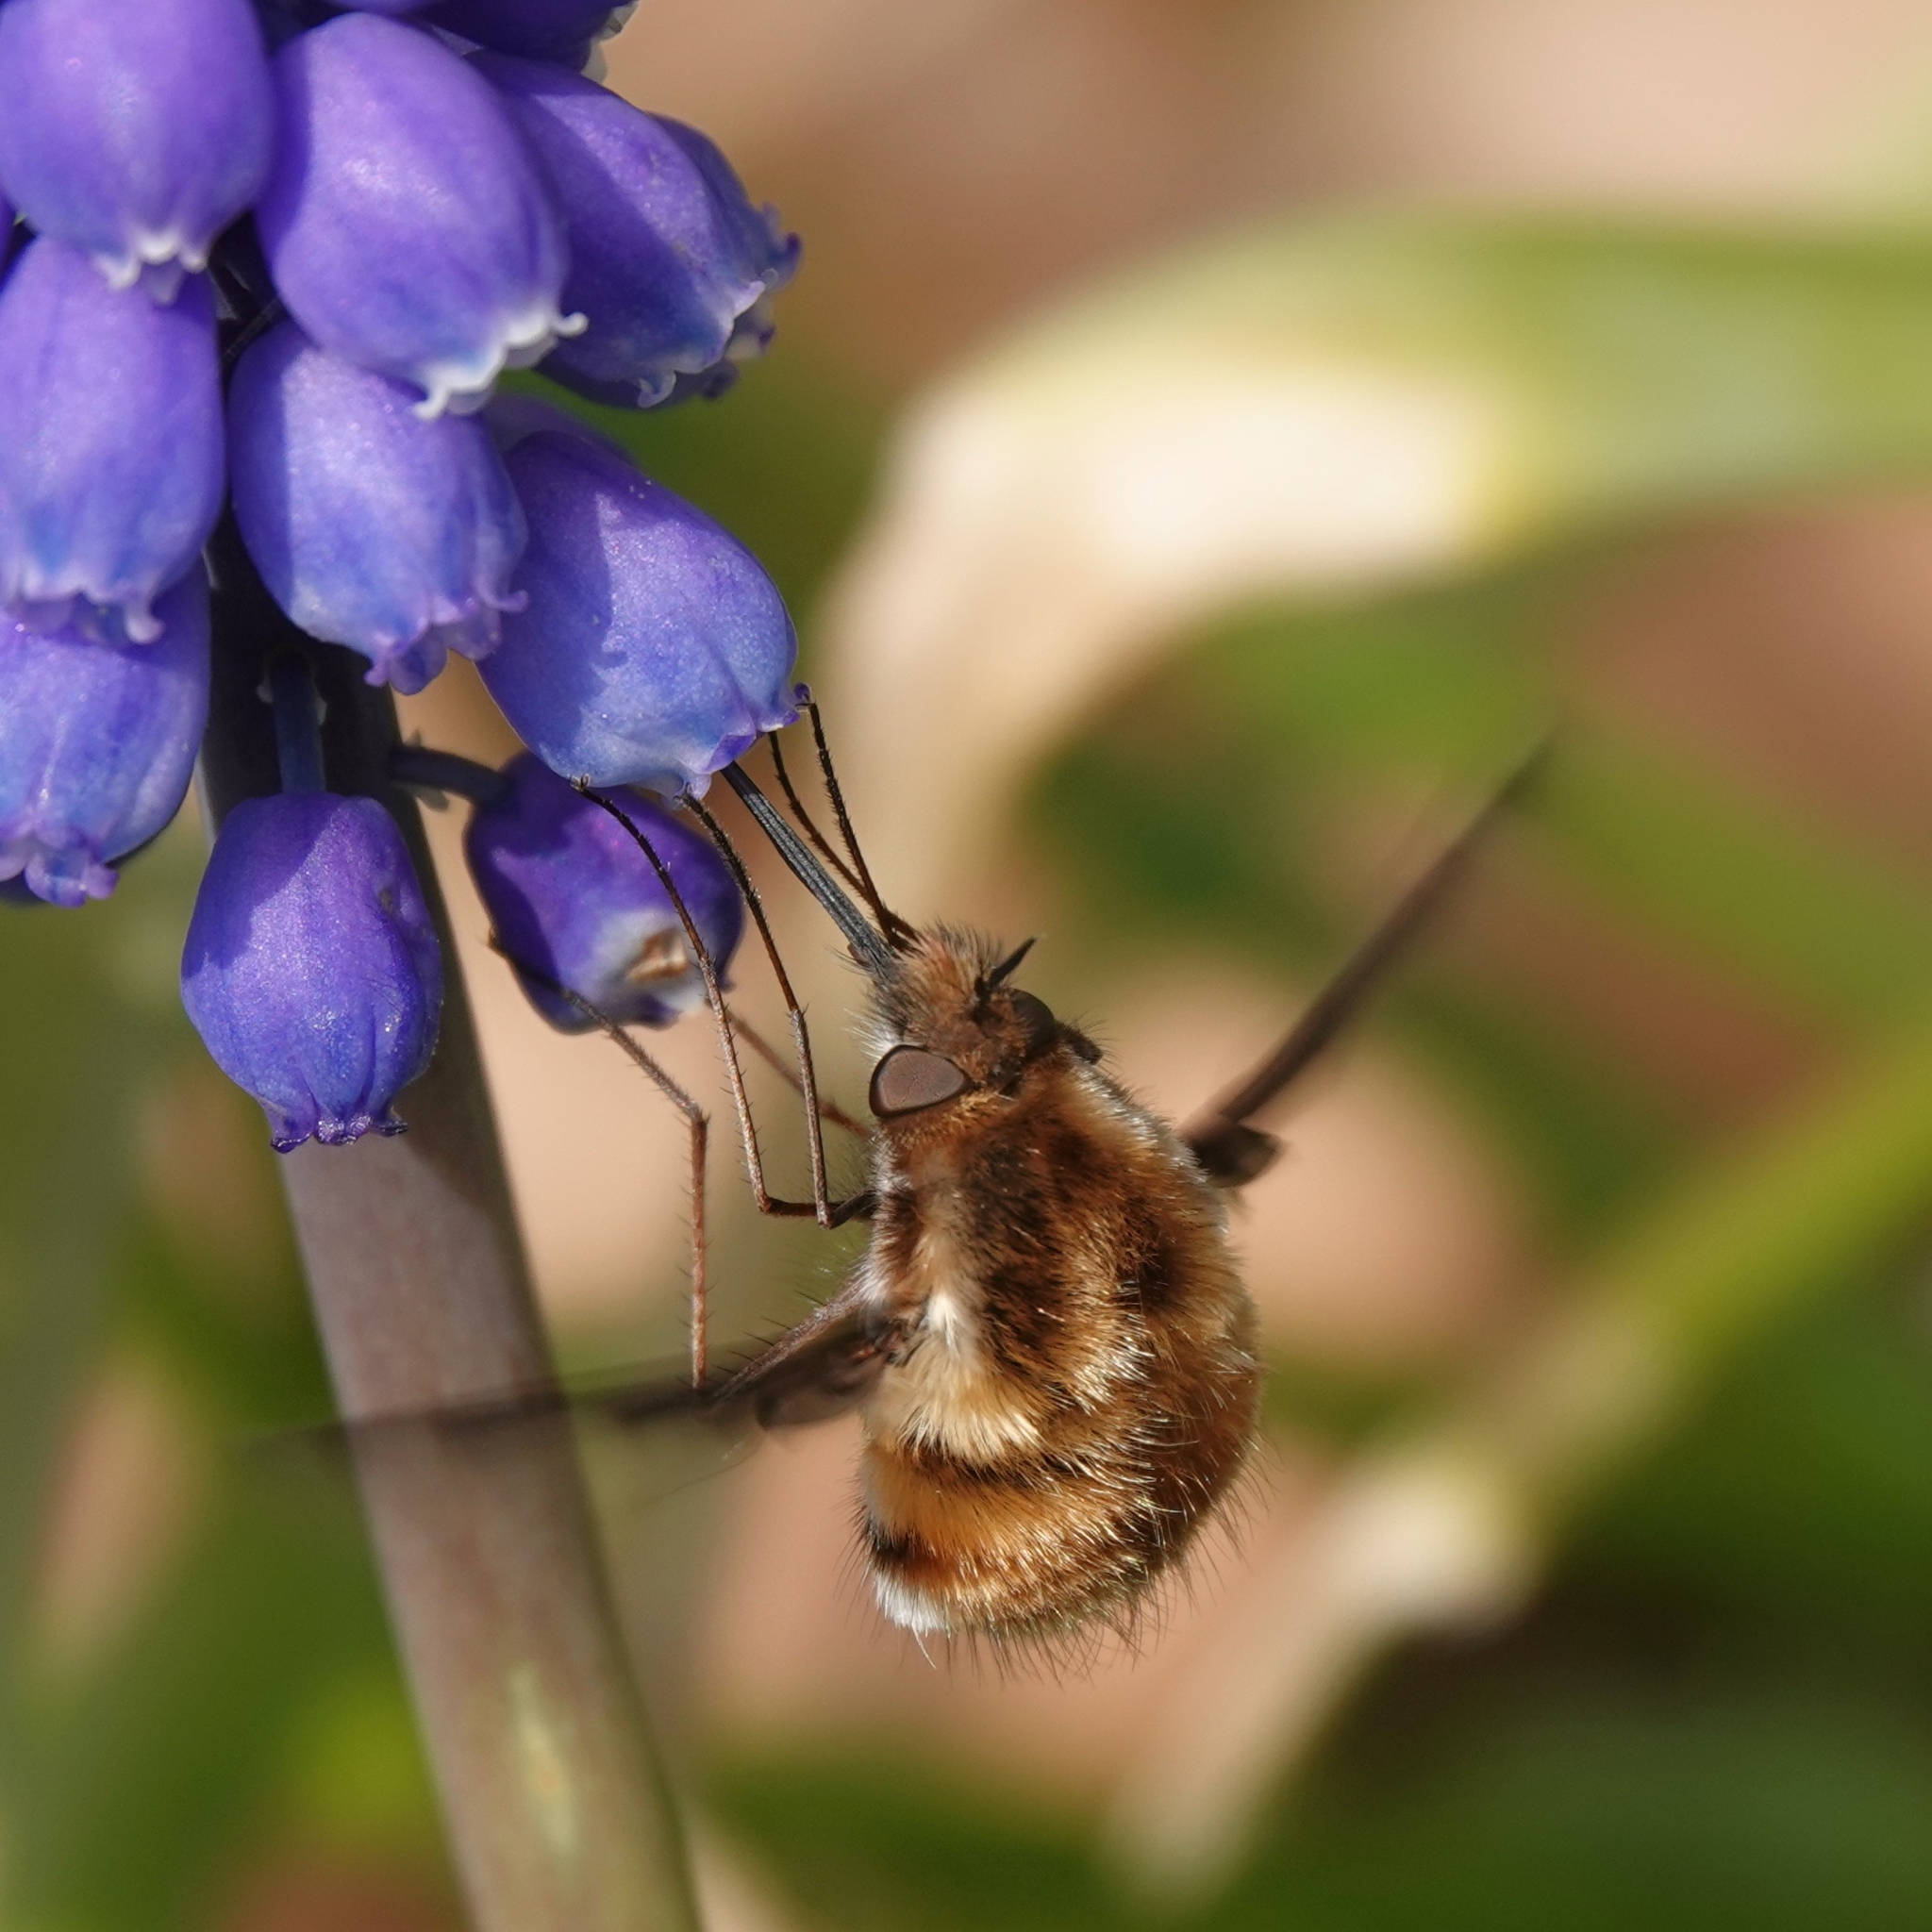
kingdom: Animalia
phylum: Arthropoda
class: Insecta
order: Diptera
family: Bombyliidae
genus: Bombylius
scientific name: Bombylius major
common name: Bee fly
